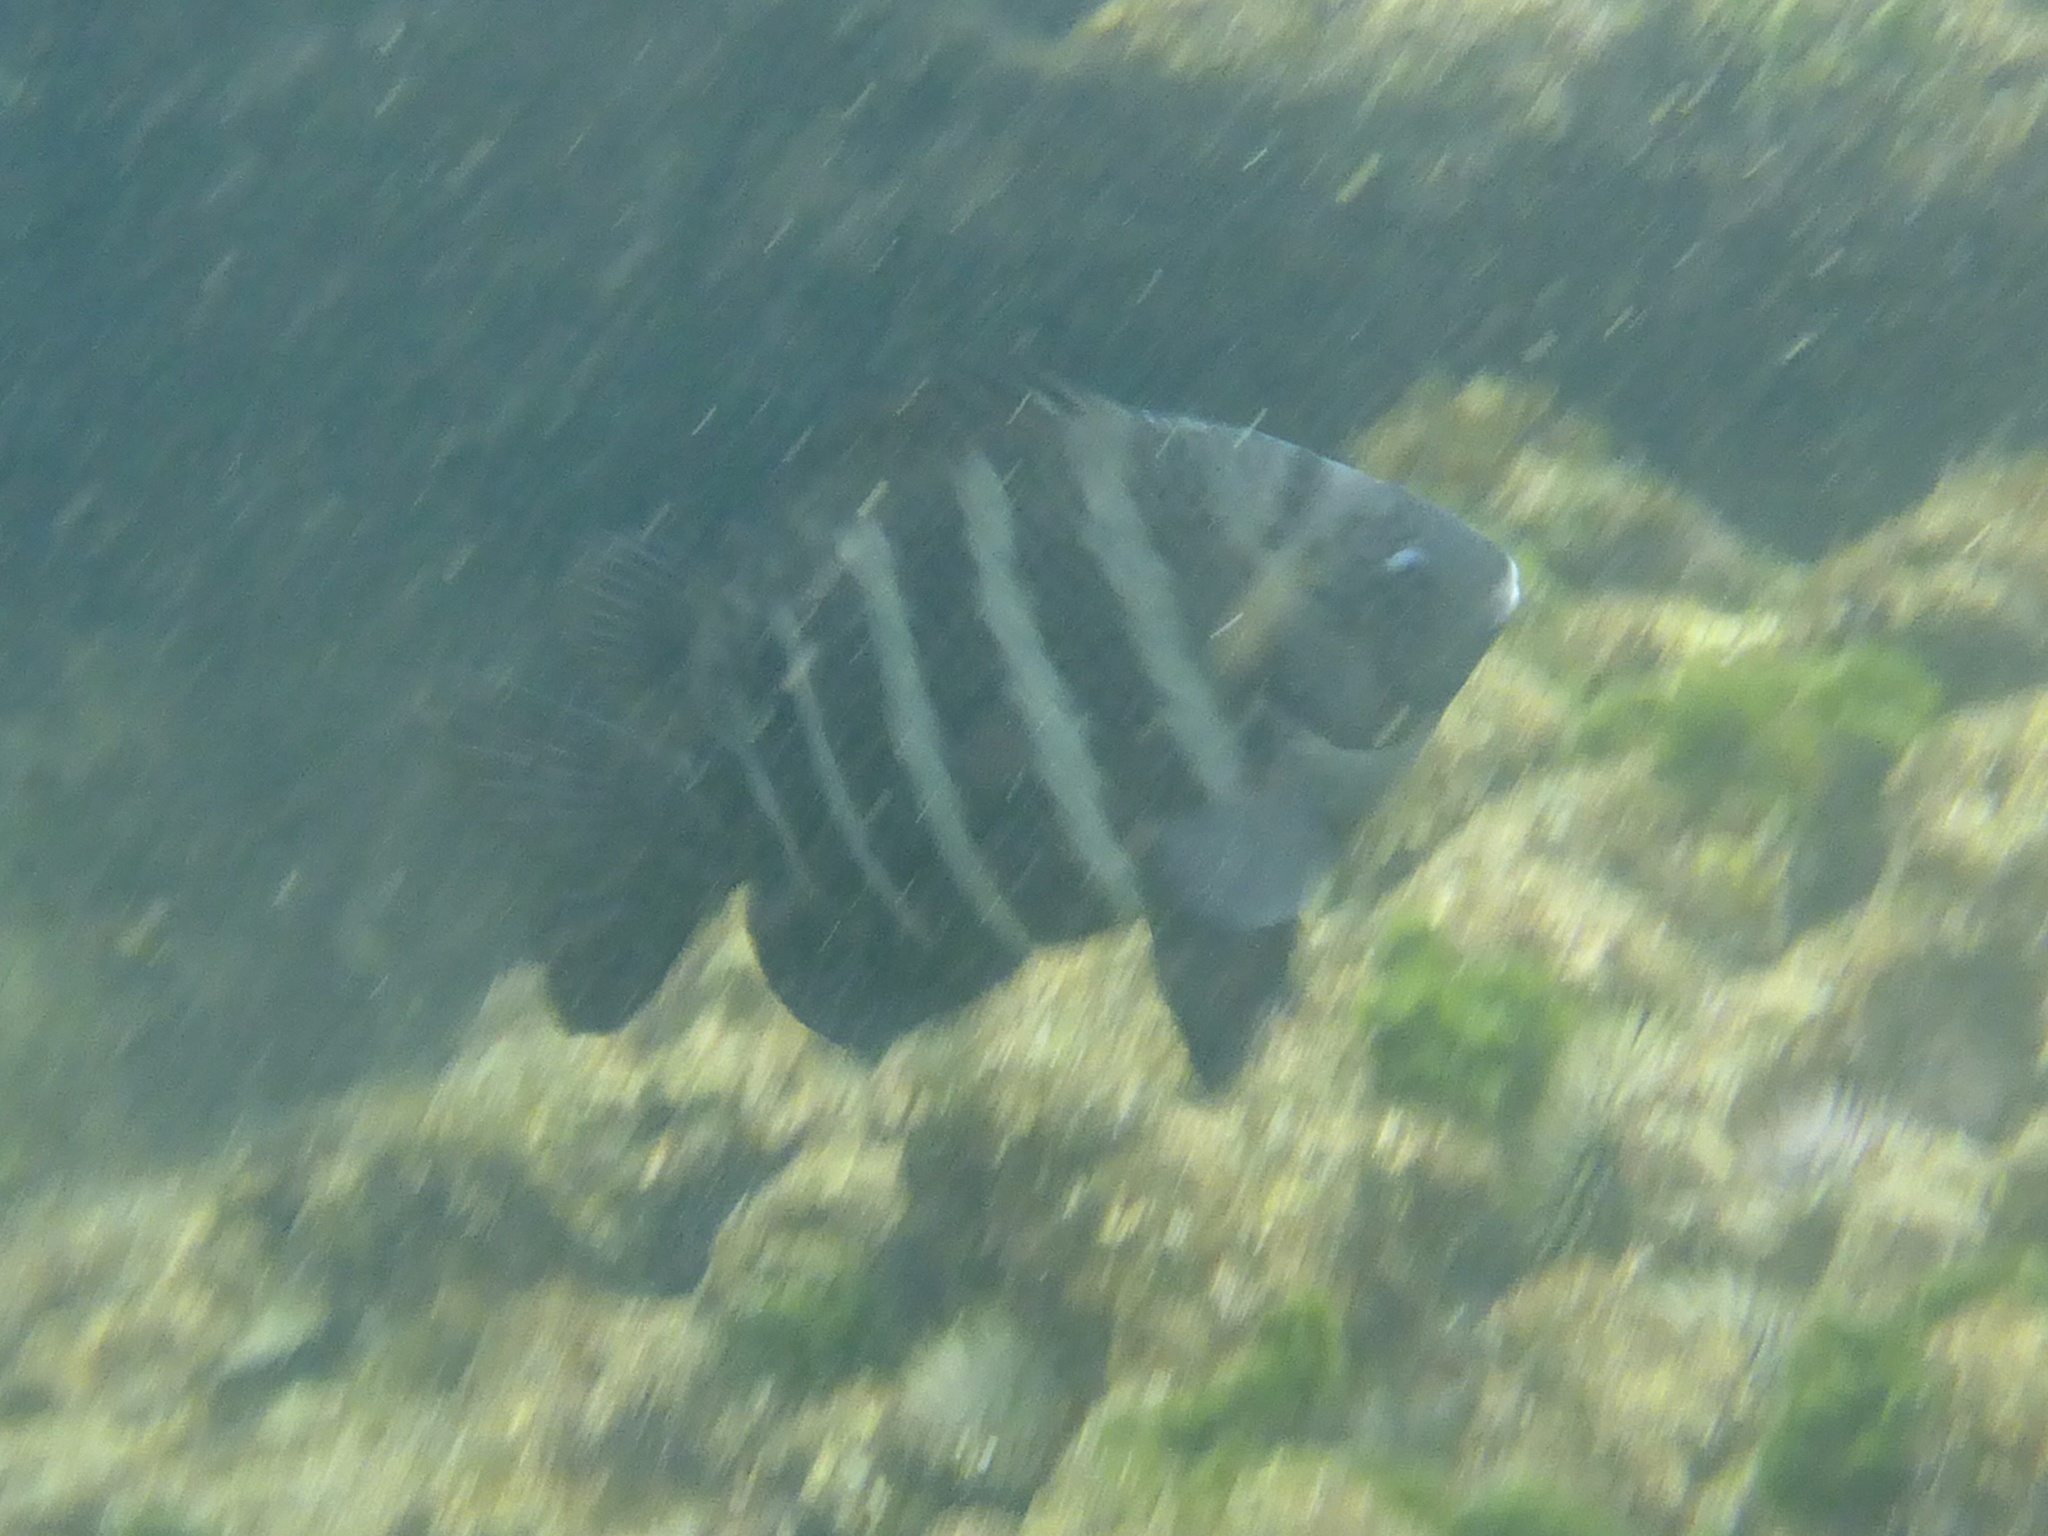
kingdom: Animalia
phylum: Chordata
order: Perciformes
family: Pomacentridae
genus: Abudefduf
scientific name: Abudefduf sordidus
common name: Blackspot sergeant
